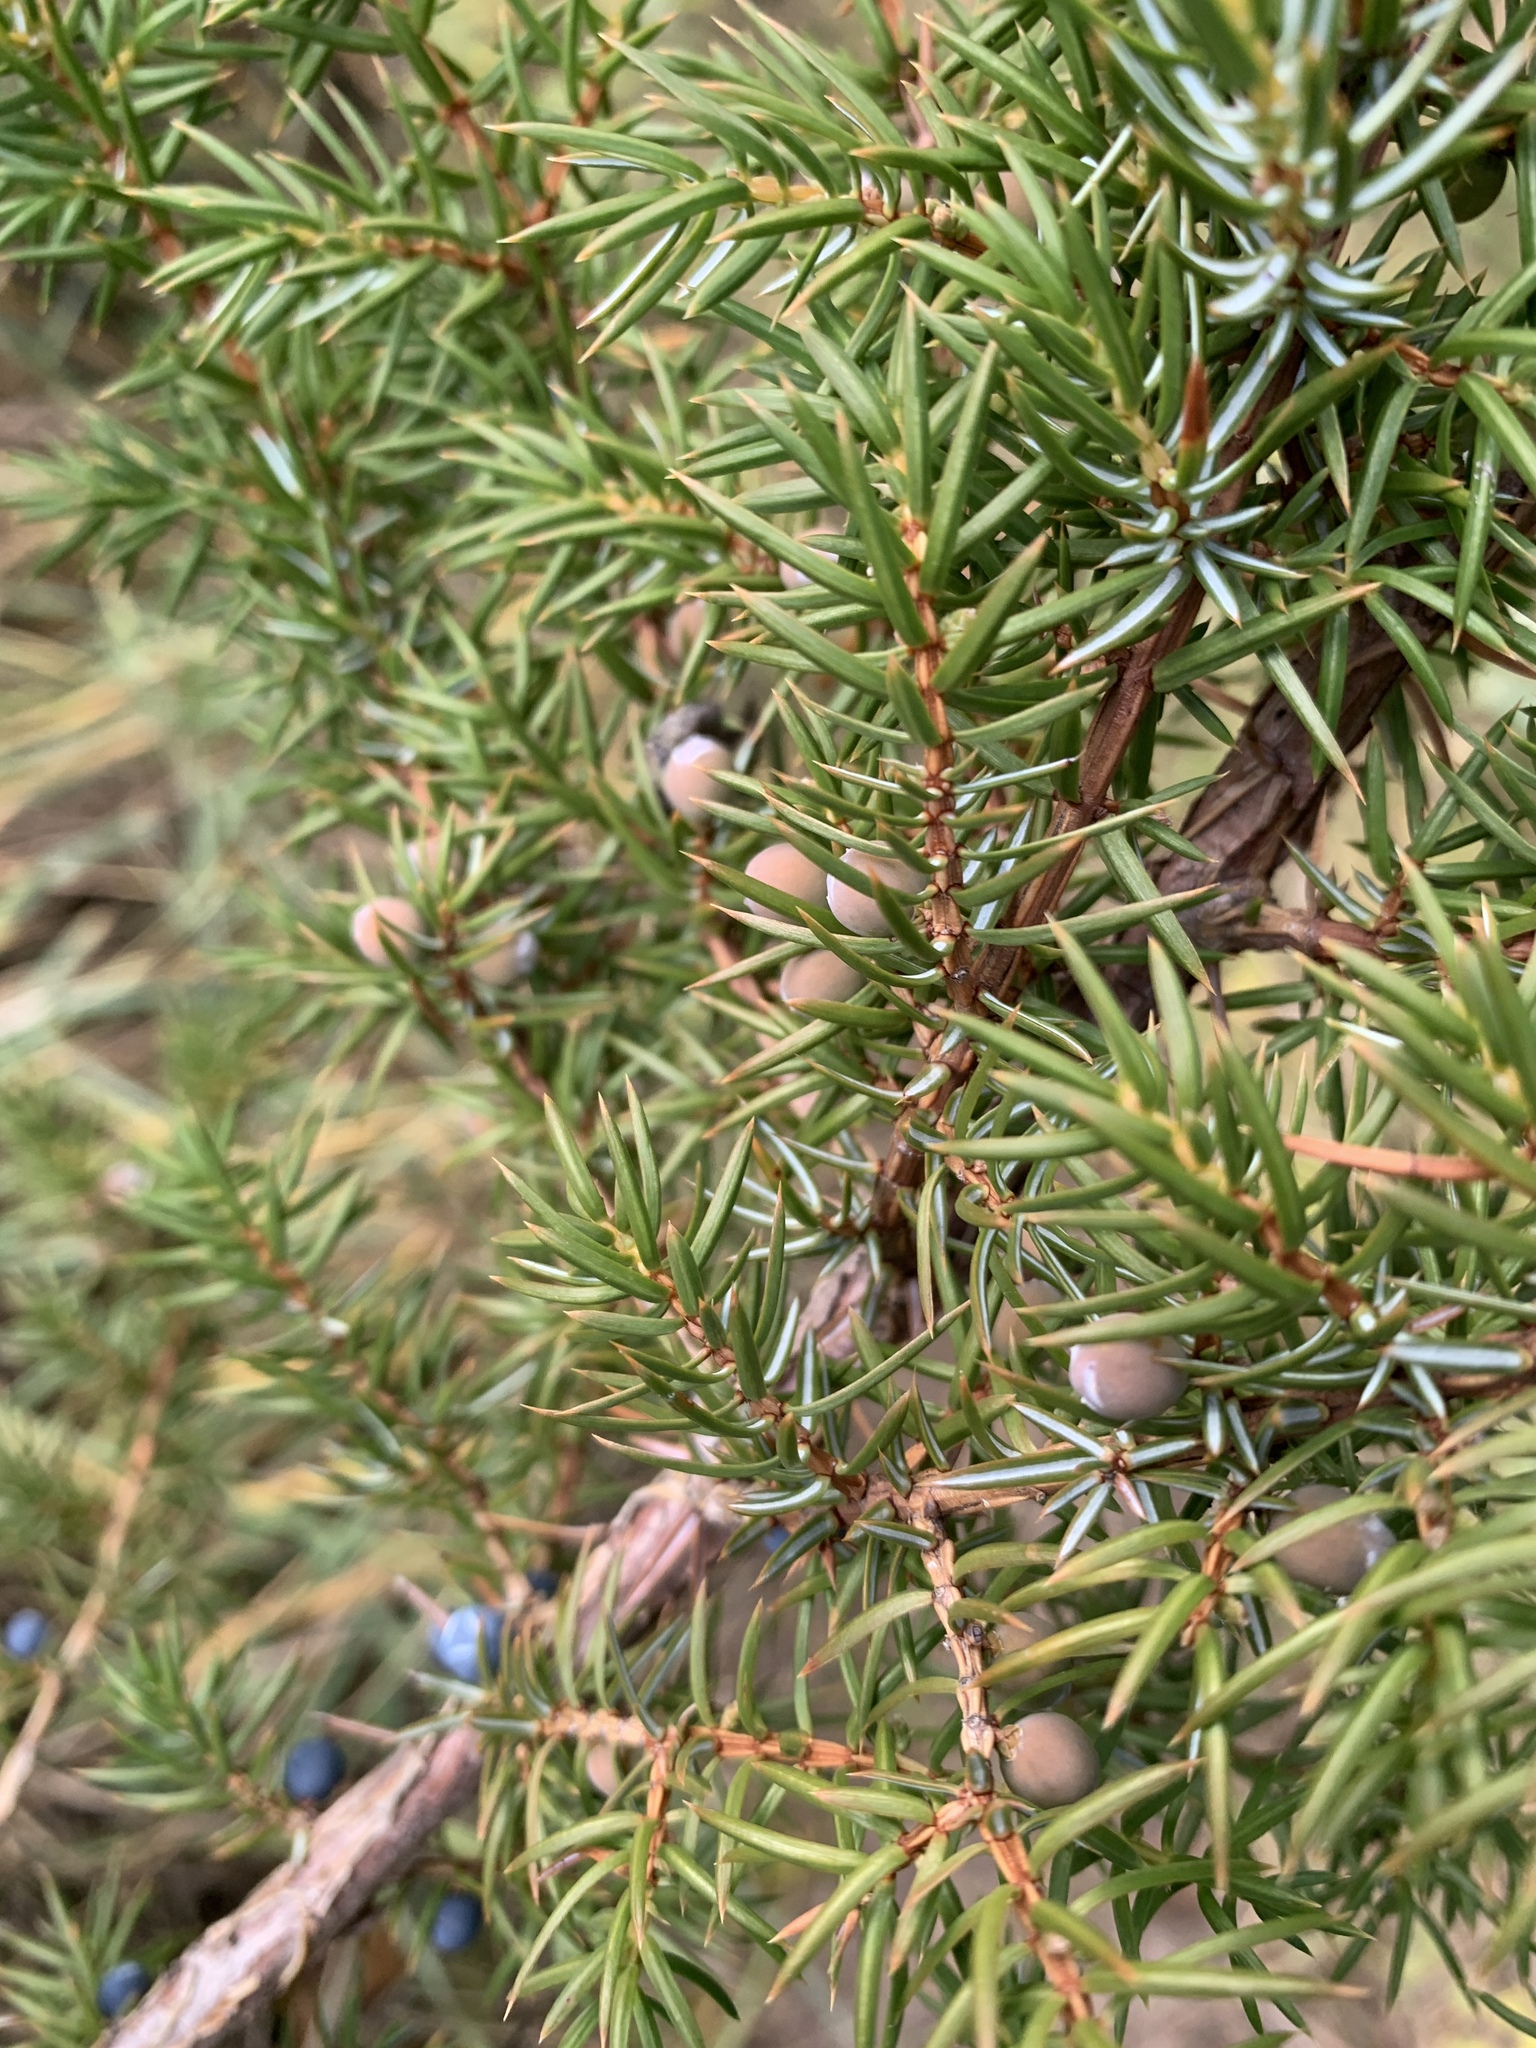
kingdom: Plantae
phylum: Tracheophyta
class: Pinopsida
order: Pinales
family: Cupressaceae
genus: Juniperus
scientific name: Juniperus communis
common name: Common juniper
